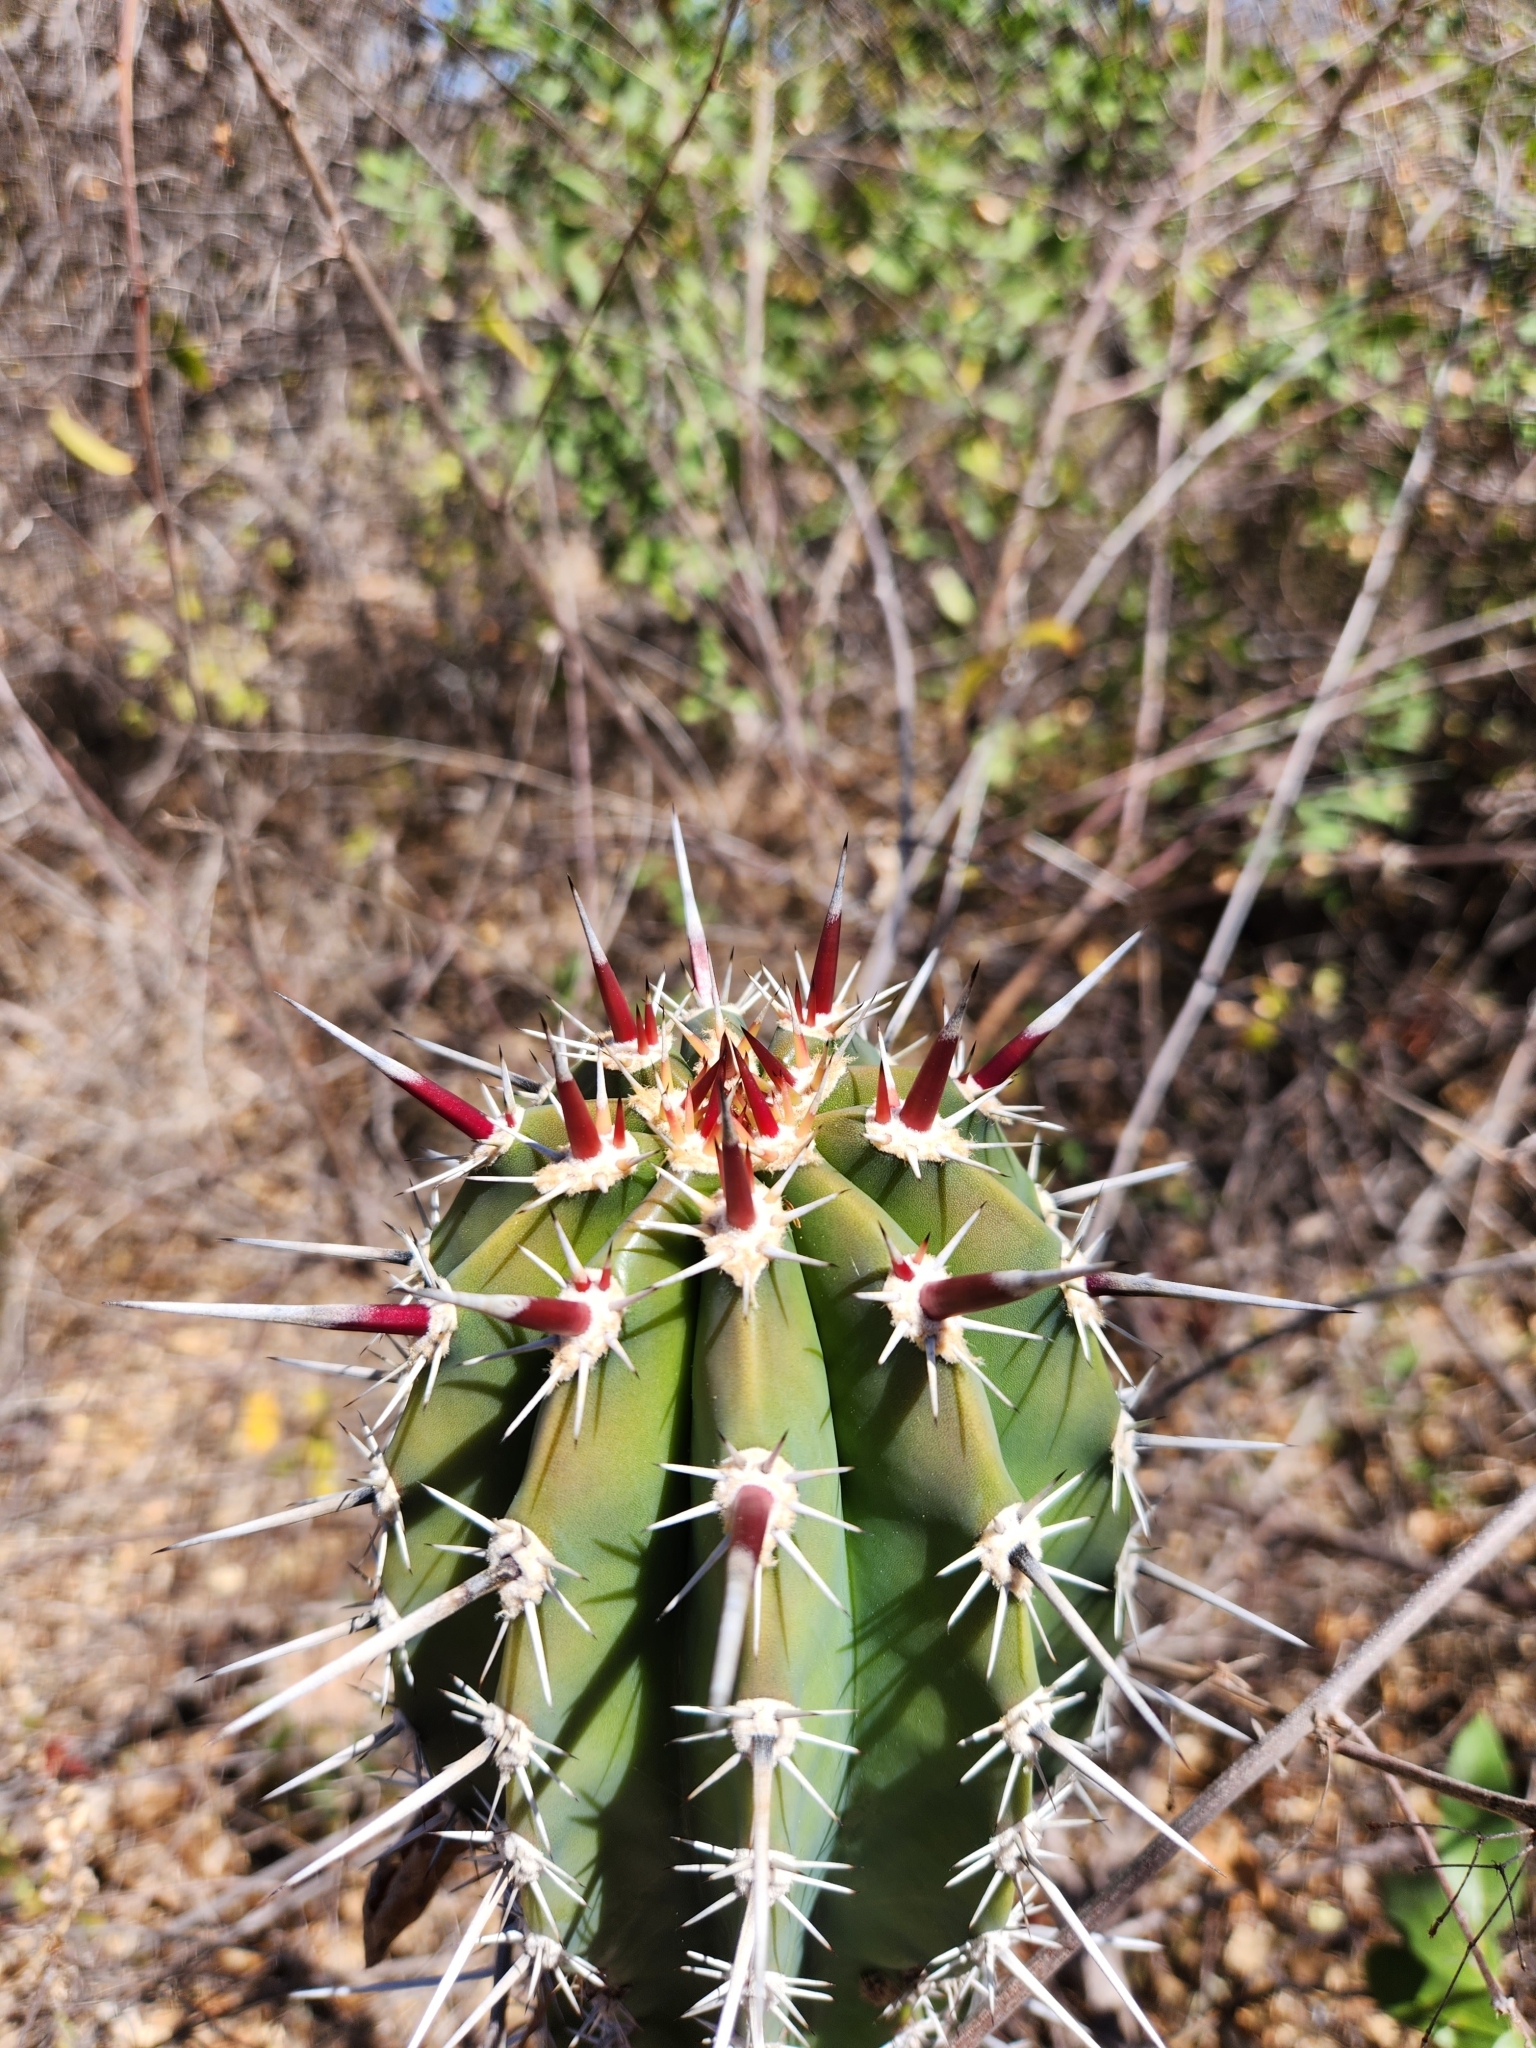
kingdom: Plantae
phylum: Tracheophyta
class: Magnoliopsida
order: Caryophyllales
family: Cactaceae
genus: Pachycereus
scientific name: Pachycereus pecten-aboriginum
